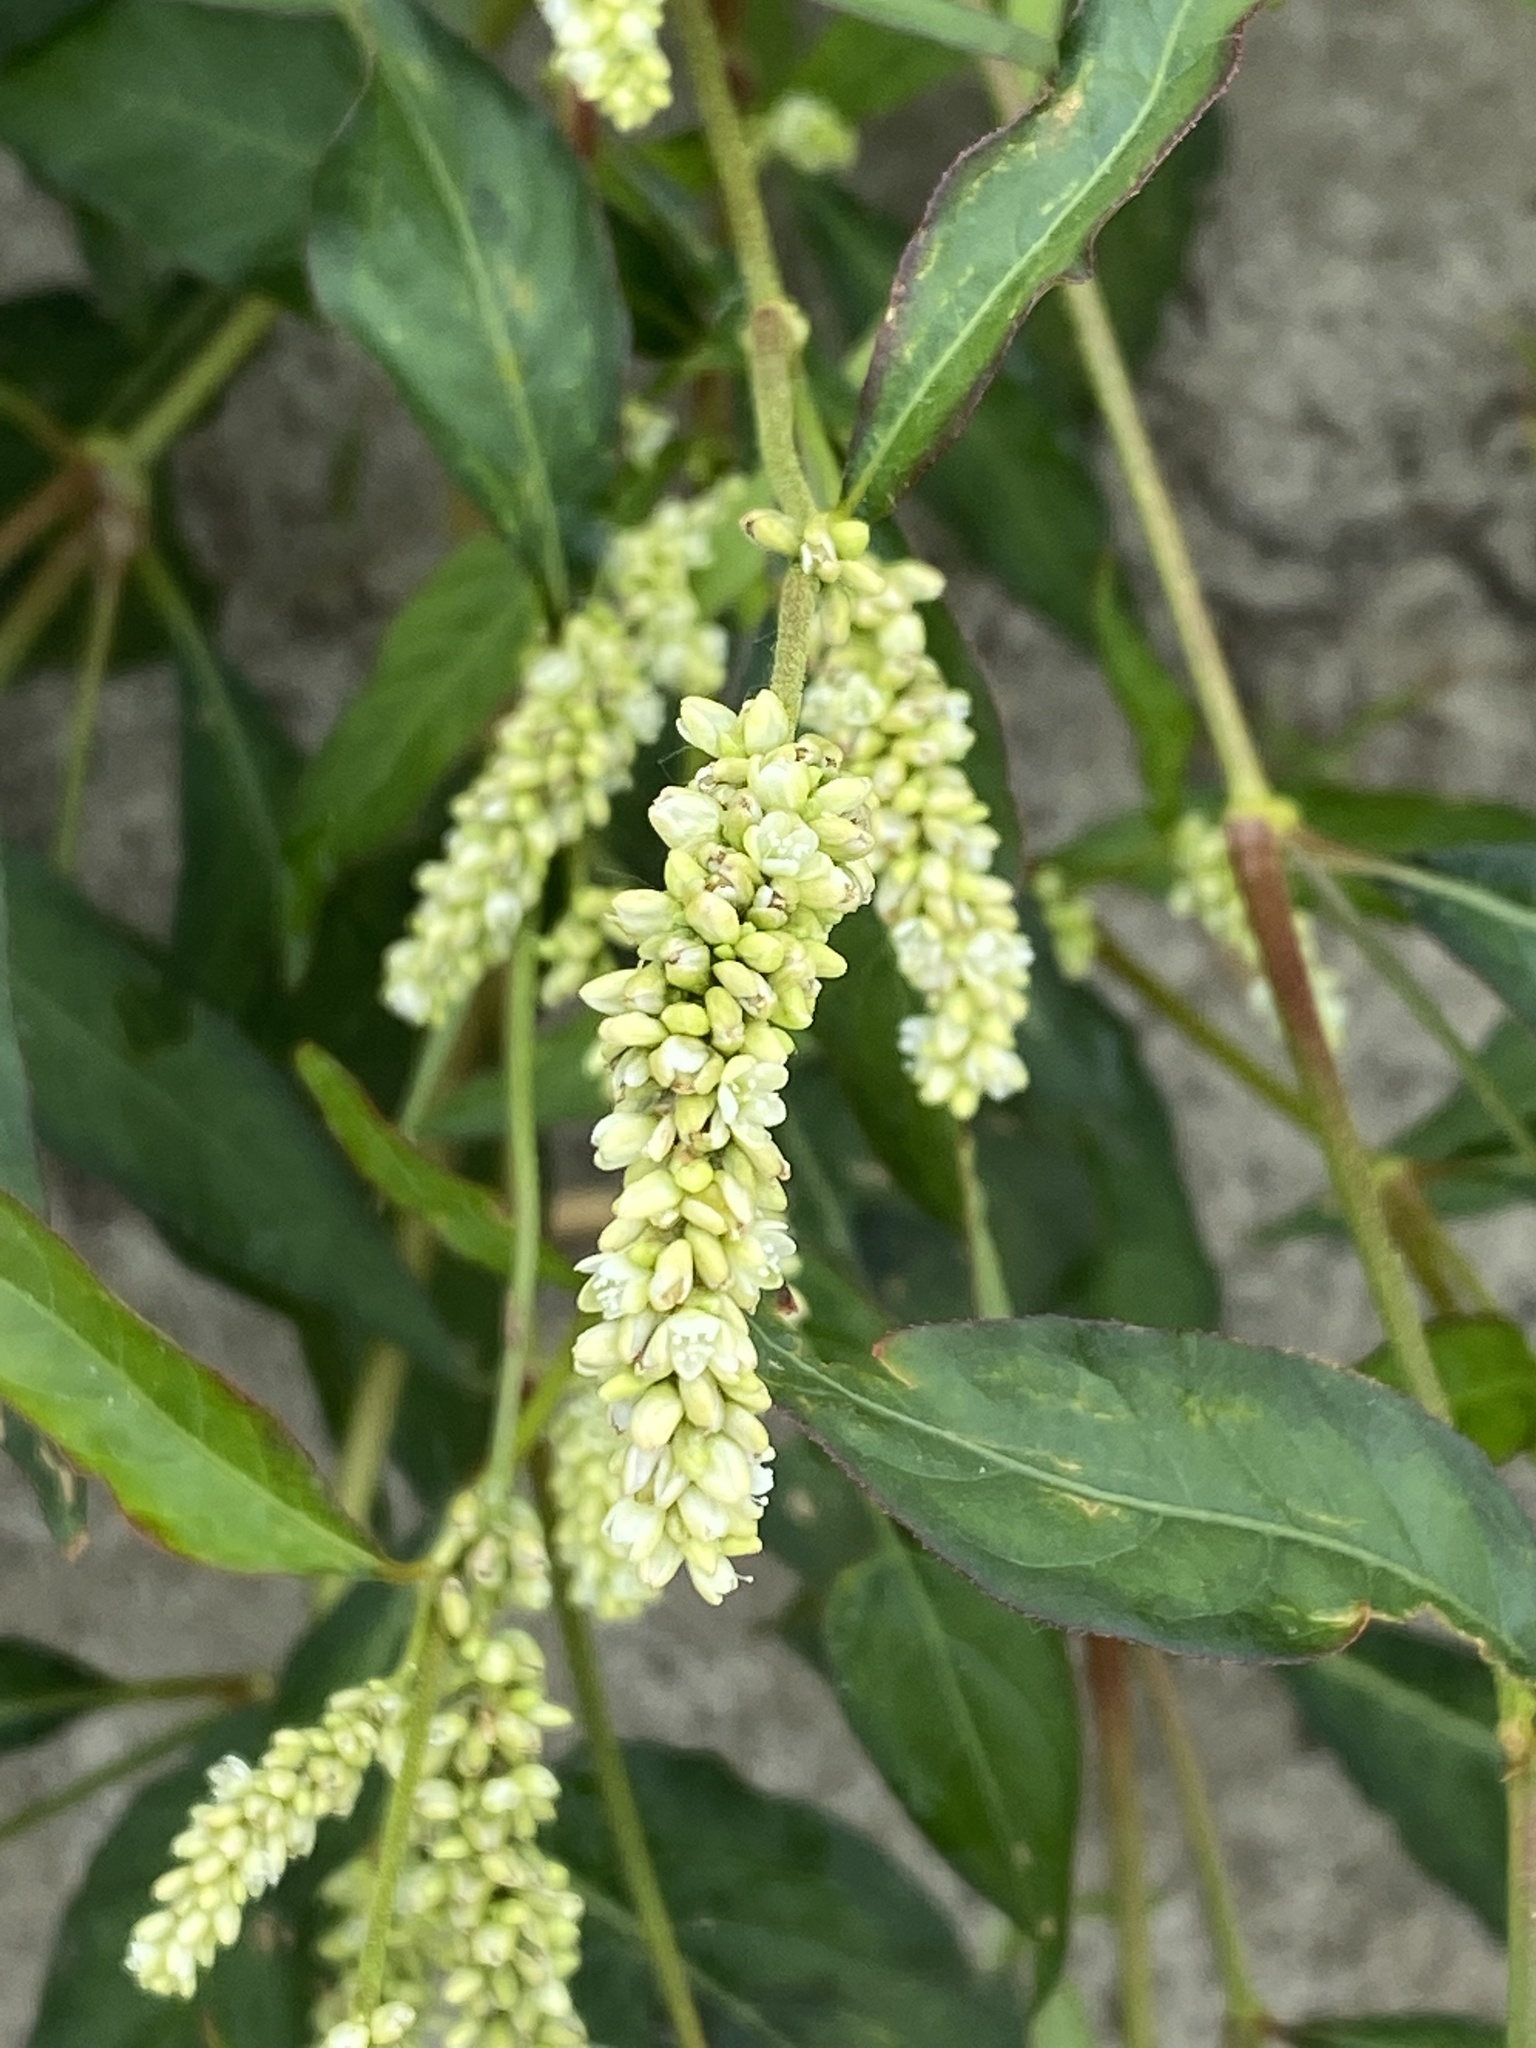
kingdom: Plantae
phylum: Tracheophyta
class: Magnoliopsida
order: Caryophyllales
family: Polygonaceae
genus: Persicaria
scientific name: Persicaria lapathifolia
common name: Curlytop knotweed
